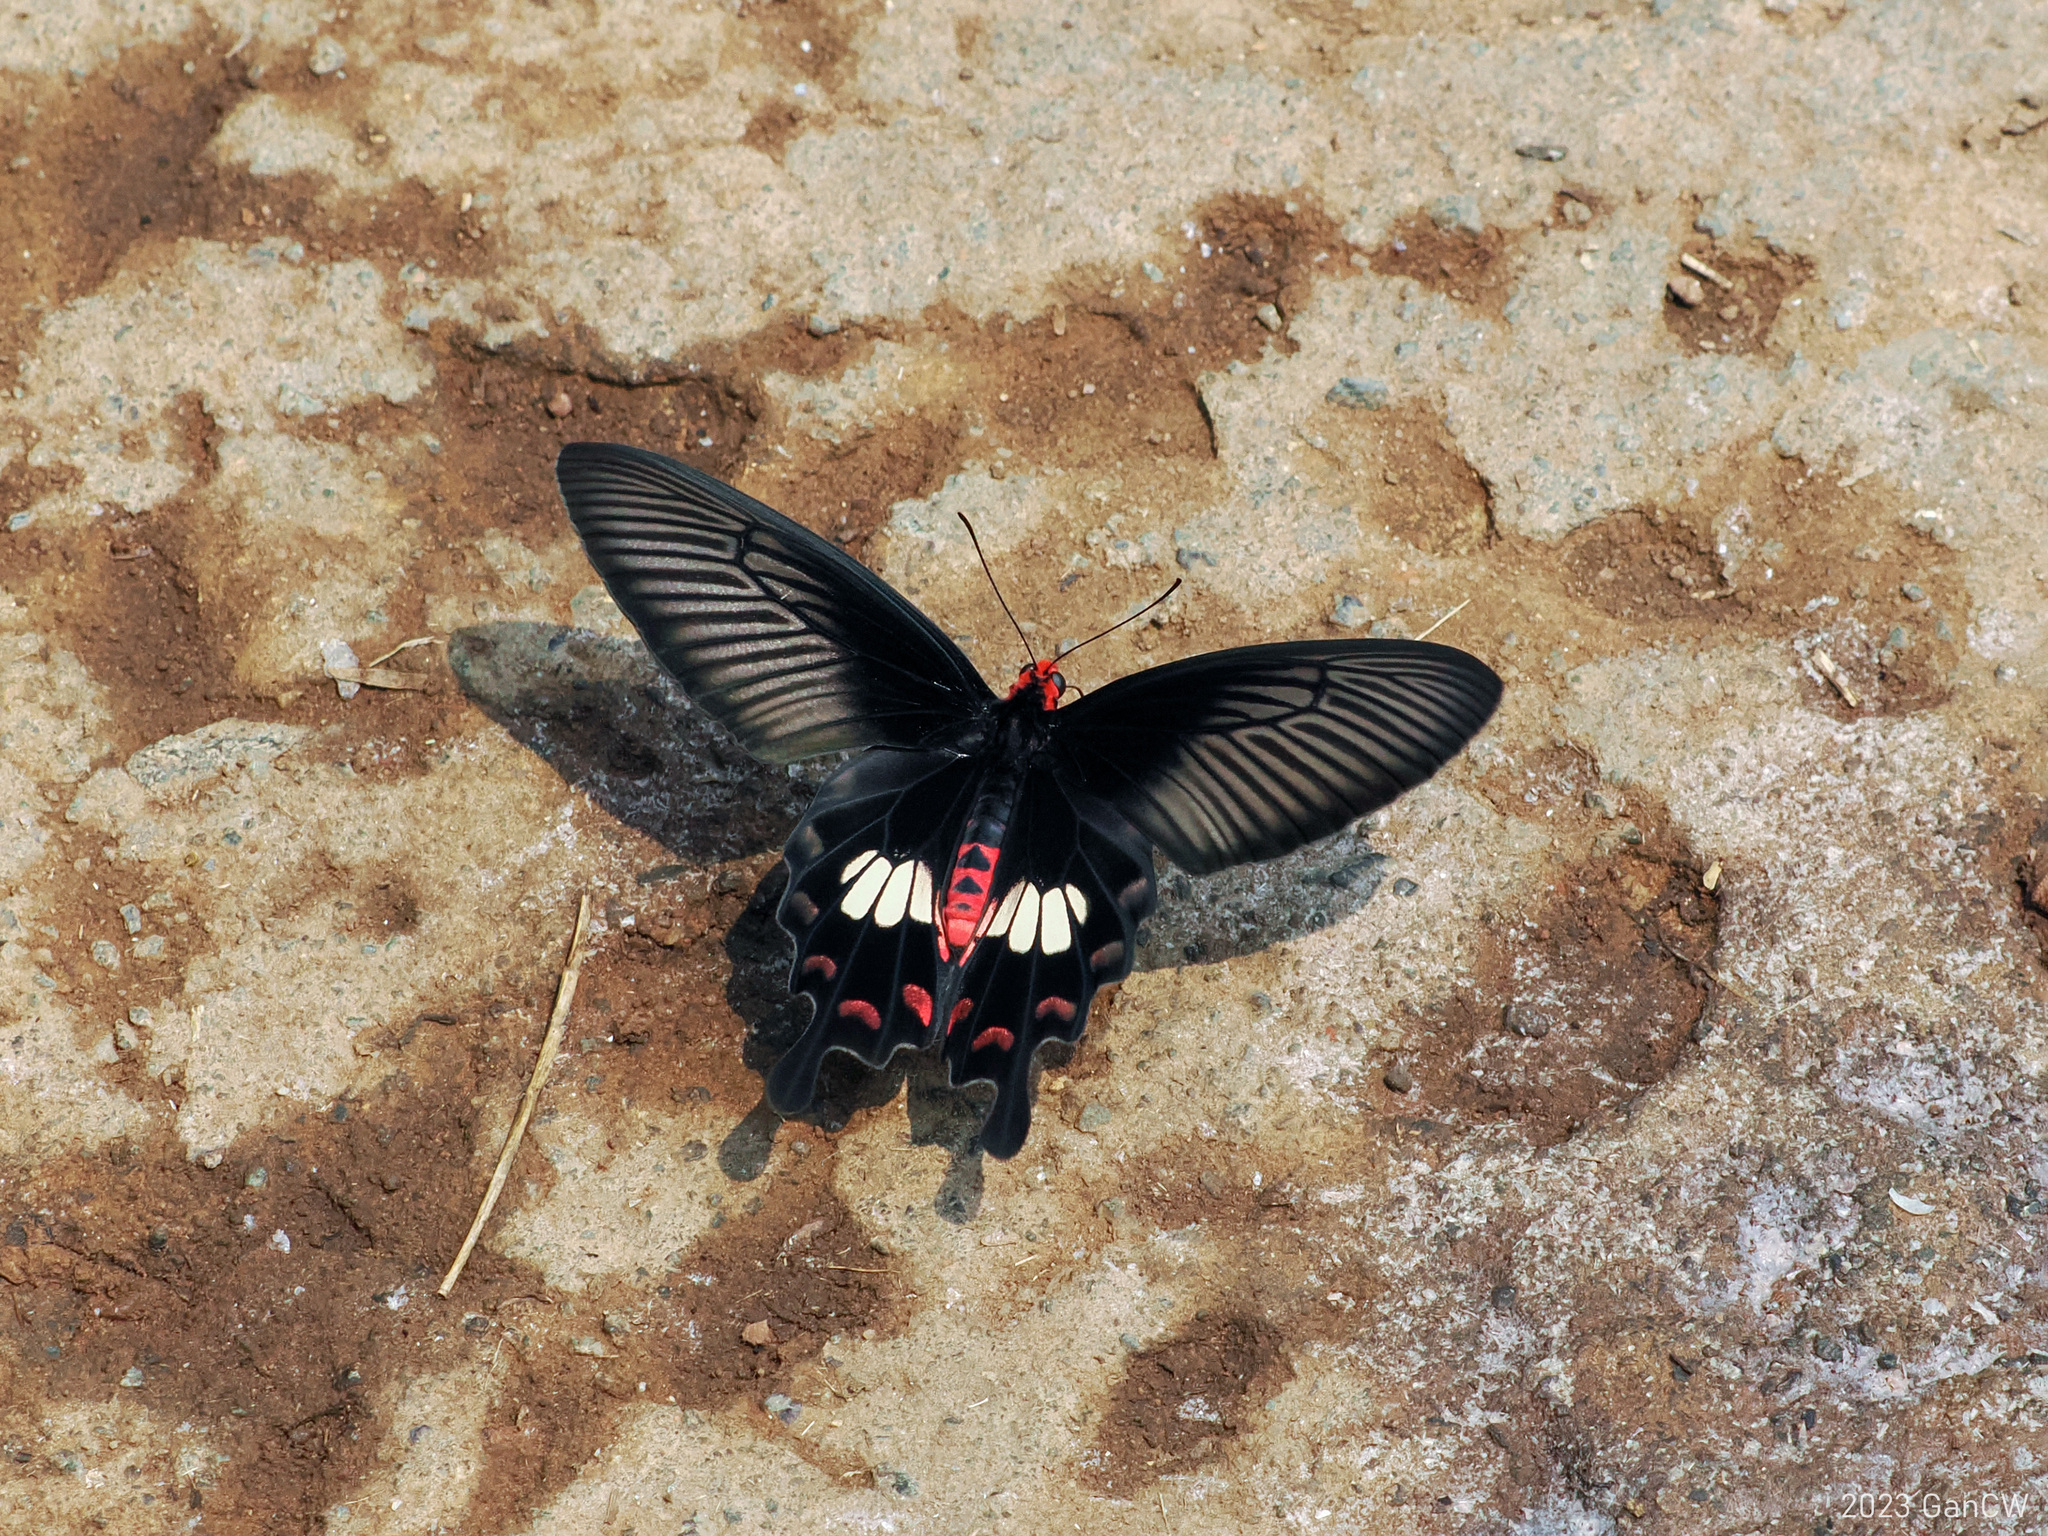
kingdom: Animalia
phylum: Arthropoda
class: Insecta
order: Lepidoptera
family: Papilionidae
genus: Pachliopta
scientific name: Pachliopta aristolochiae
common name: Common rose
